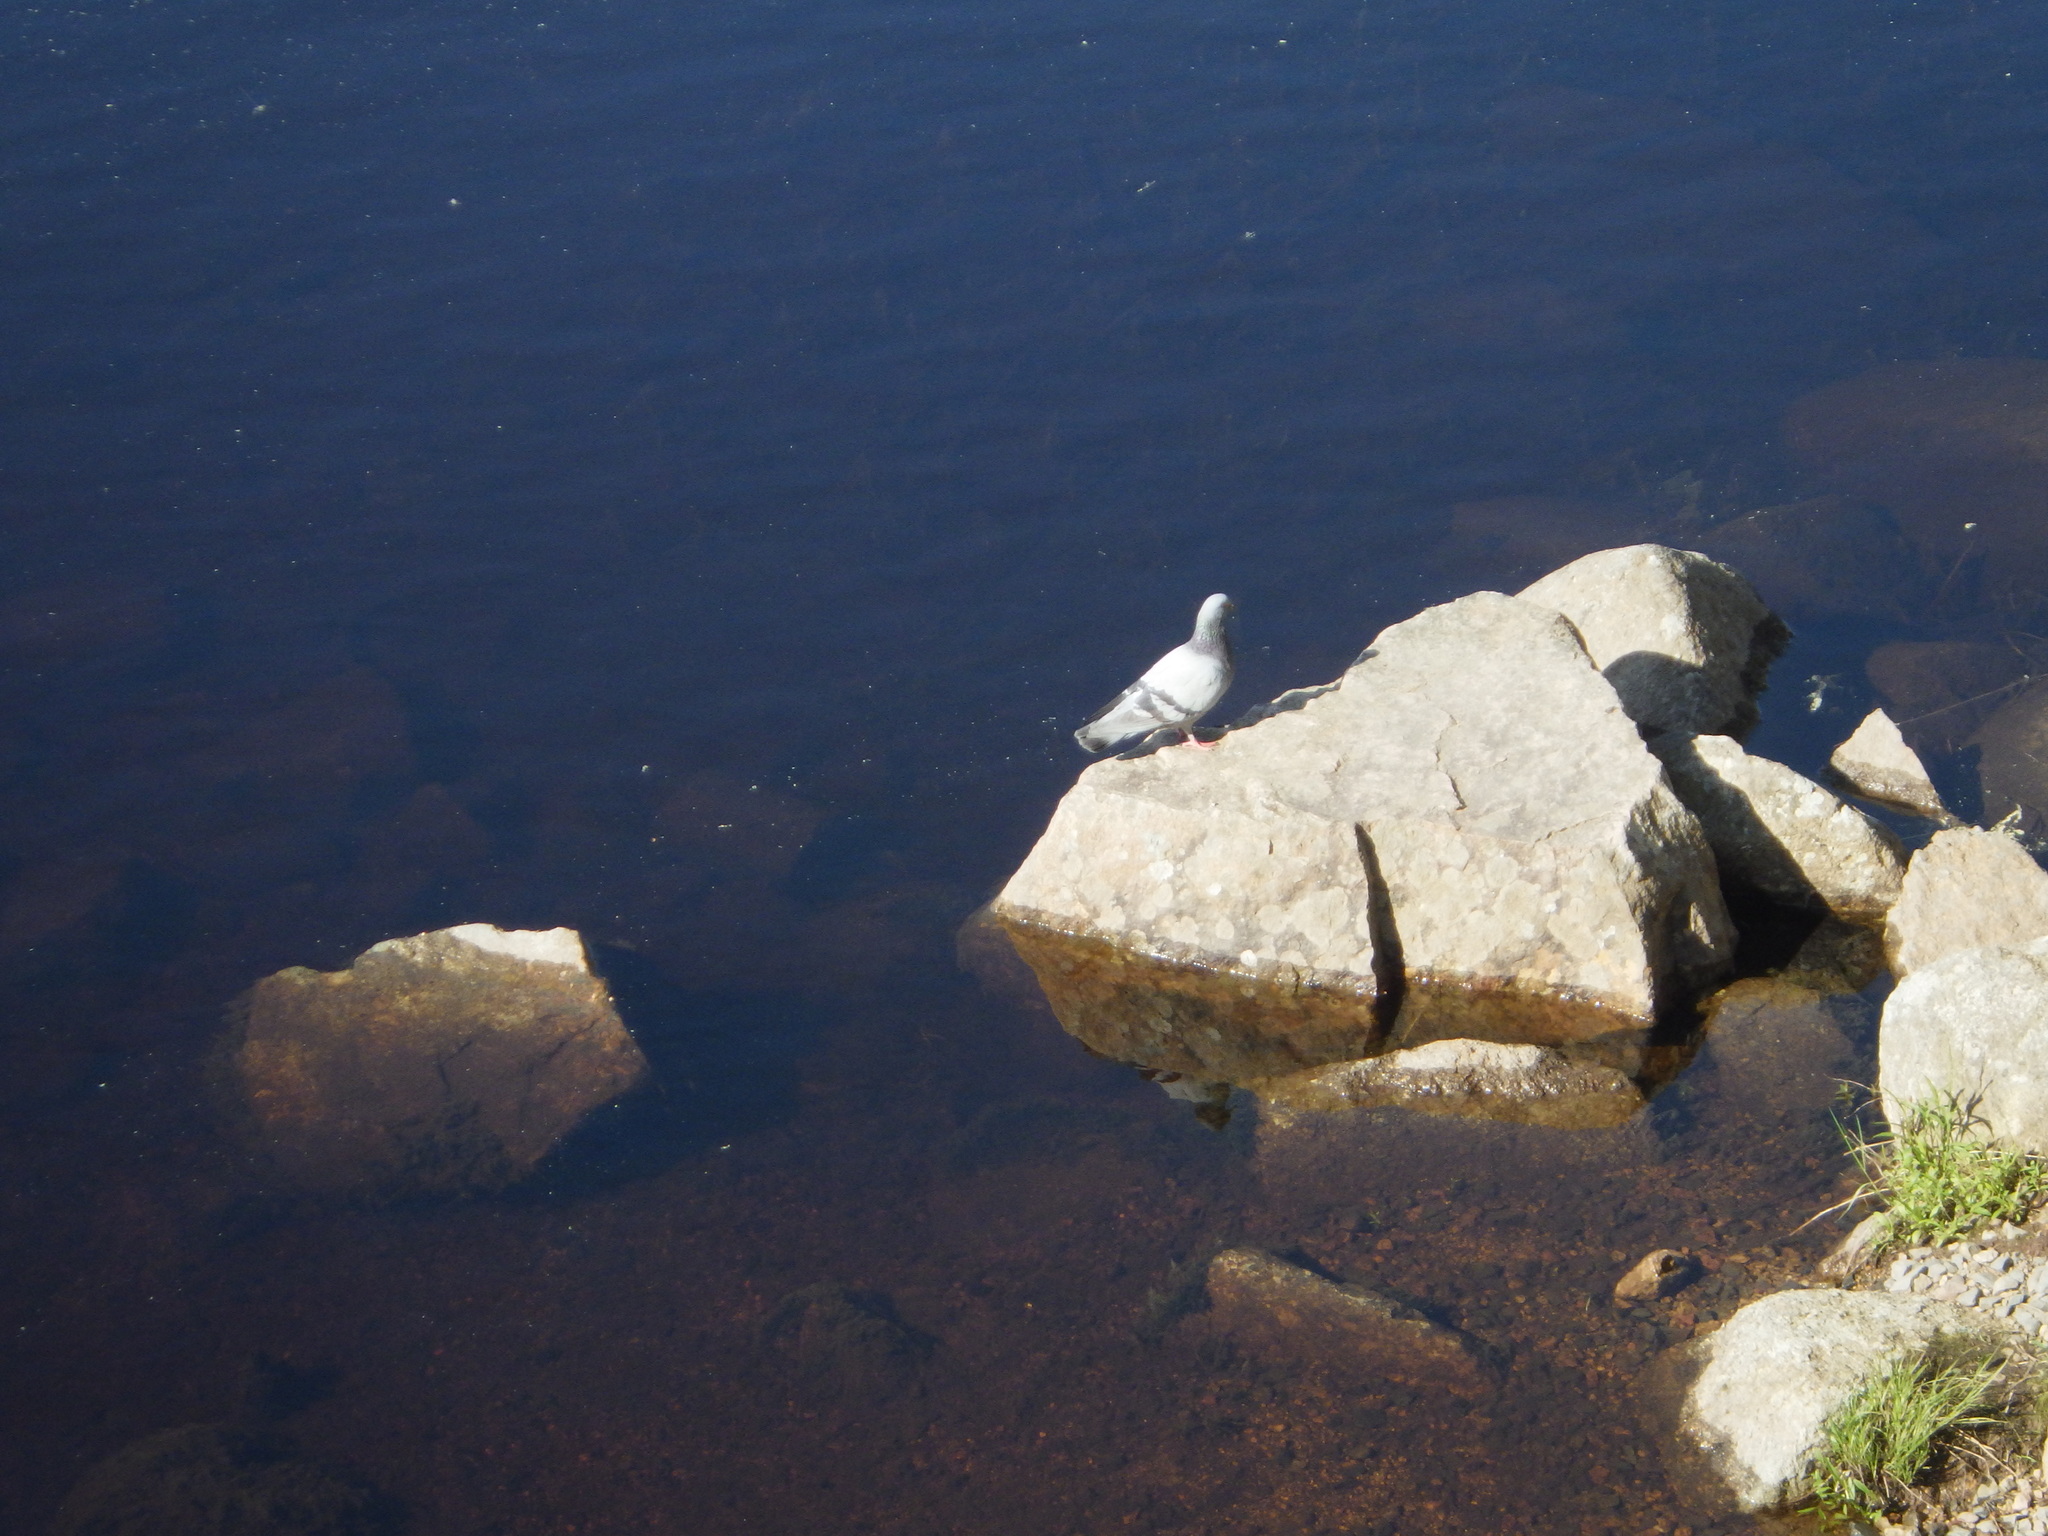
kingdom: Animalia
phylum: Chordata
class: Aves
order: Columbiformes
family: Columbidae
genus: Columba
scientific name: Columba livia
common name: Rock pigeon
